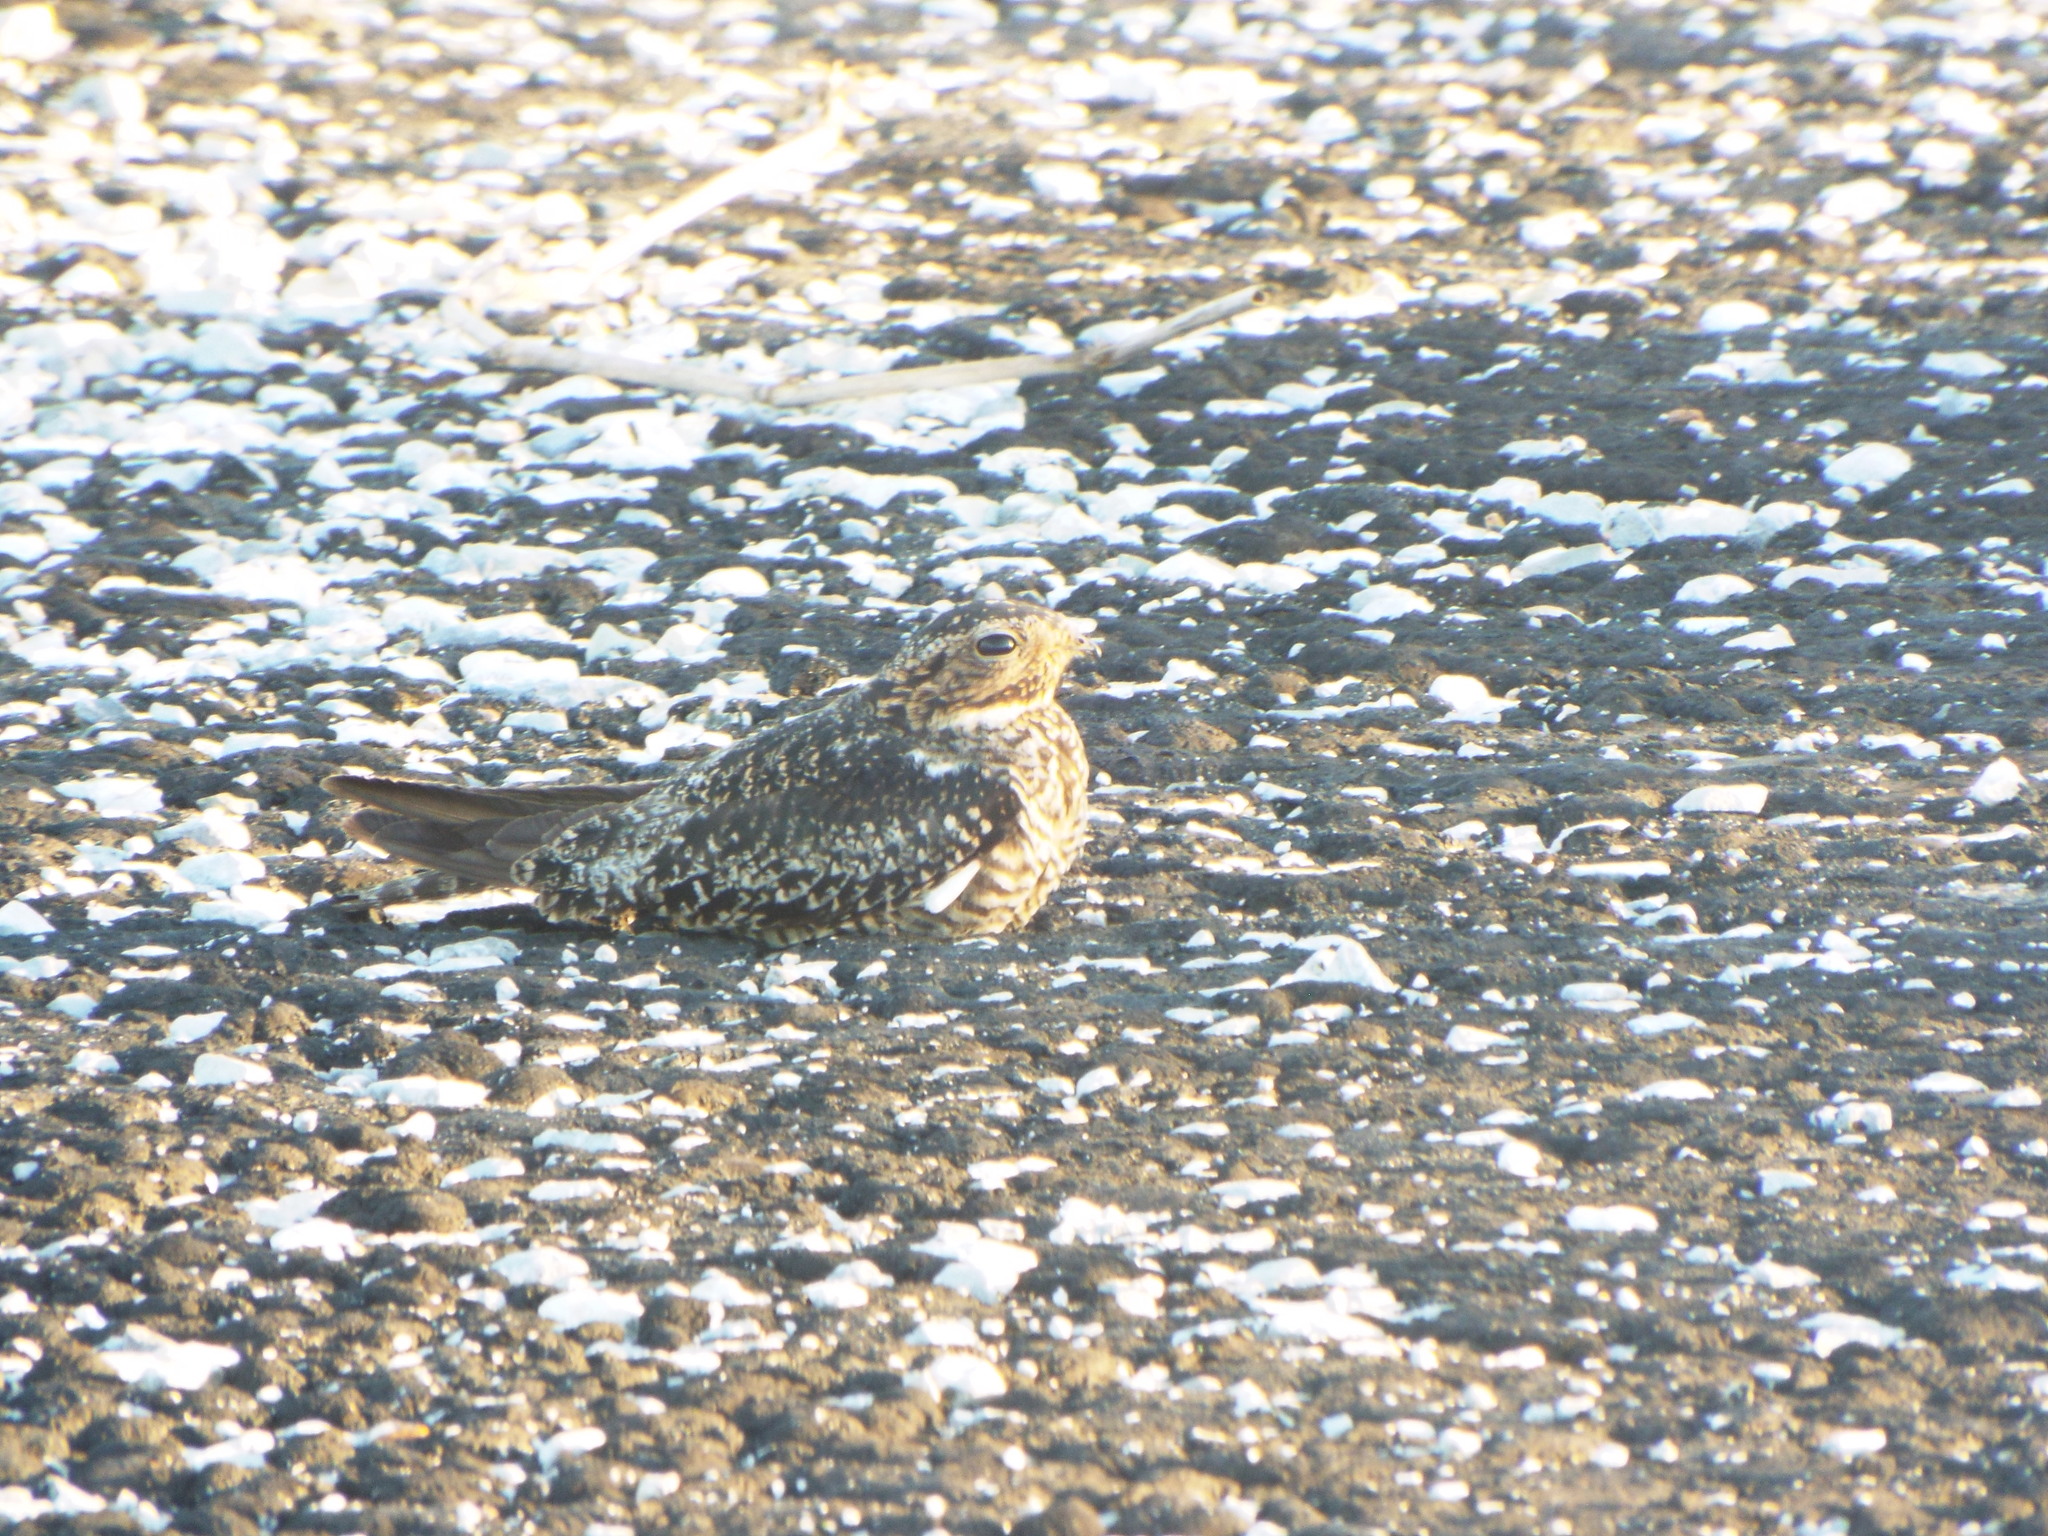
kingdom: Animalia
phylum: Chordata
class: Aves
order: Caprimulgiformes
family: Caprimulgidae
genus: Chordeiles
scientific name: Chordeiles minor
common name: Common nighthawk
